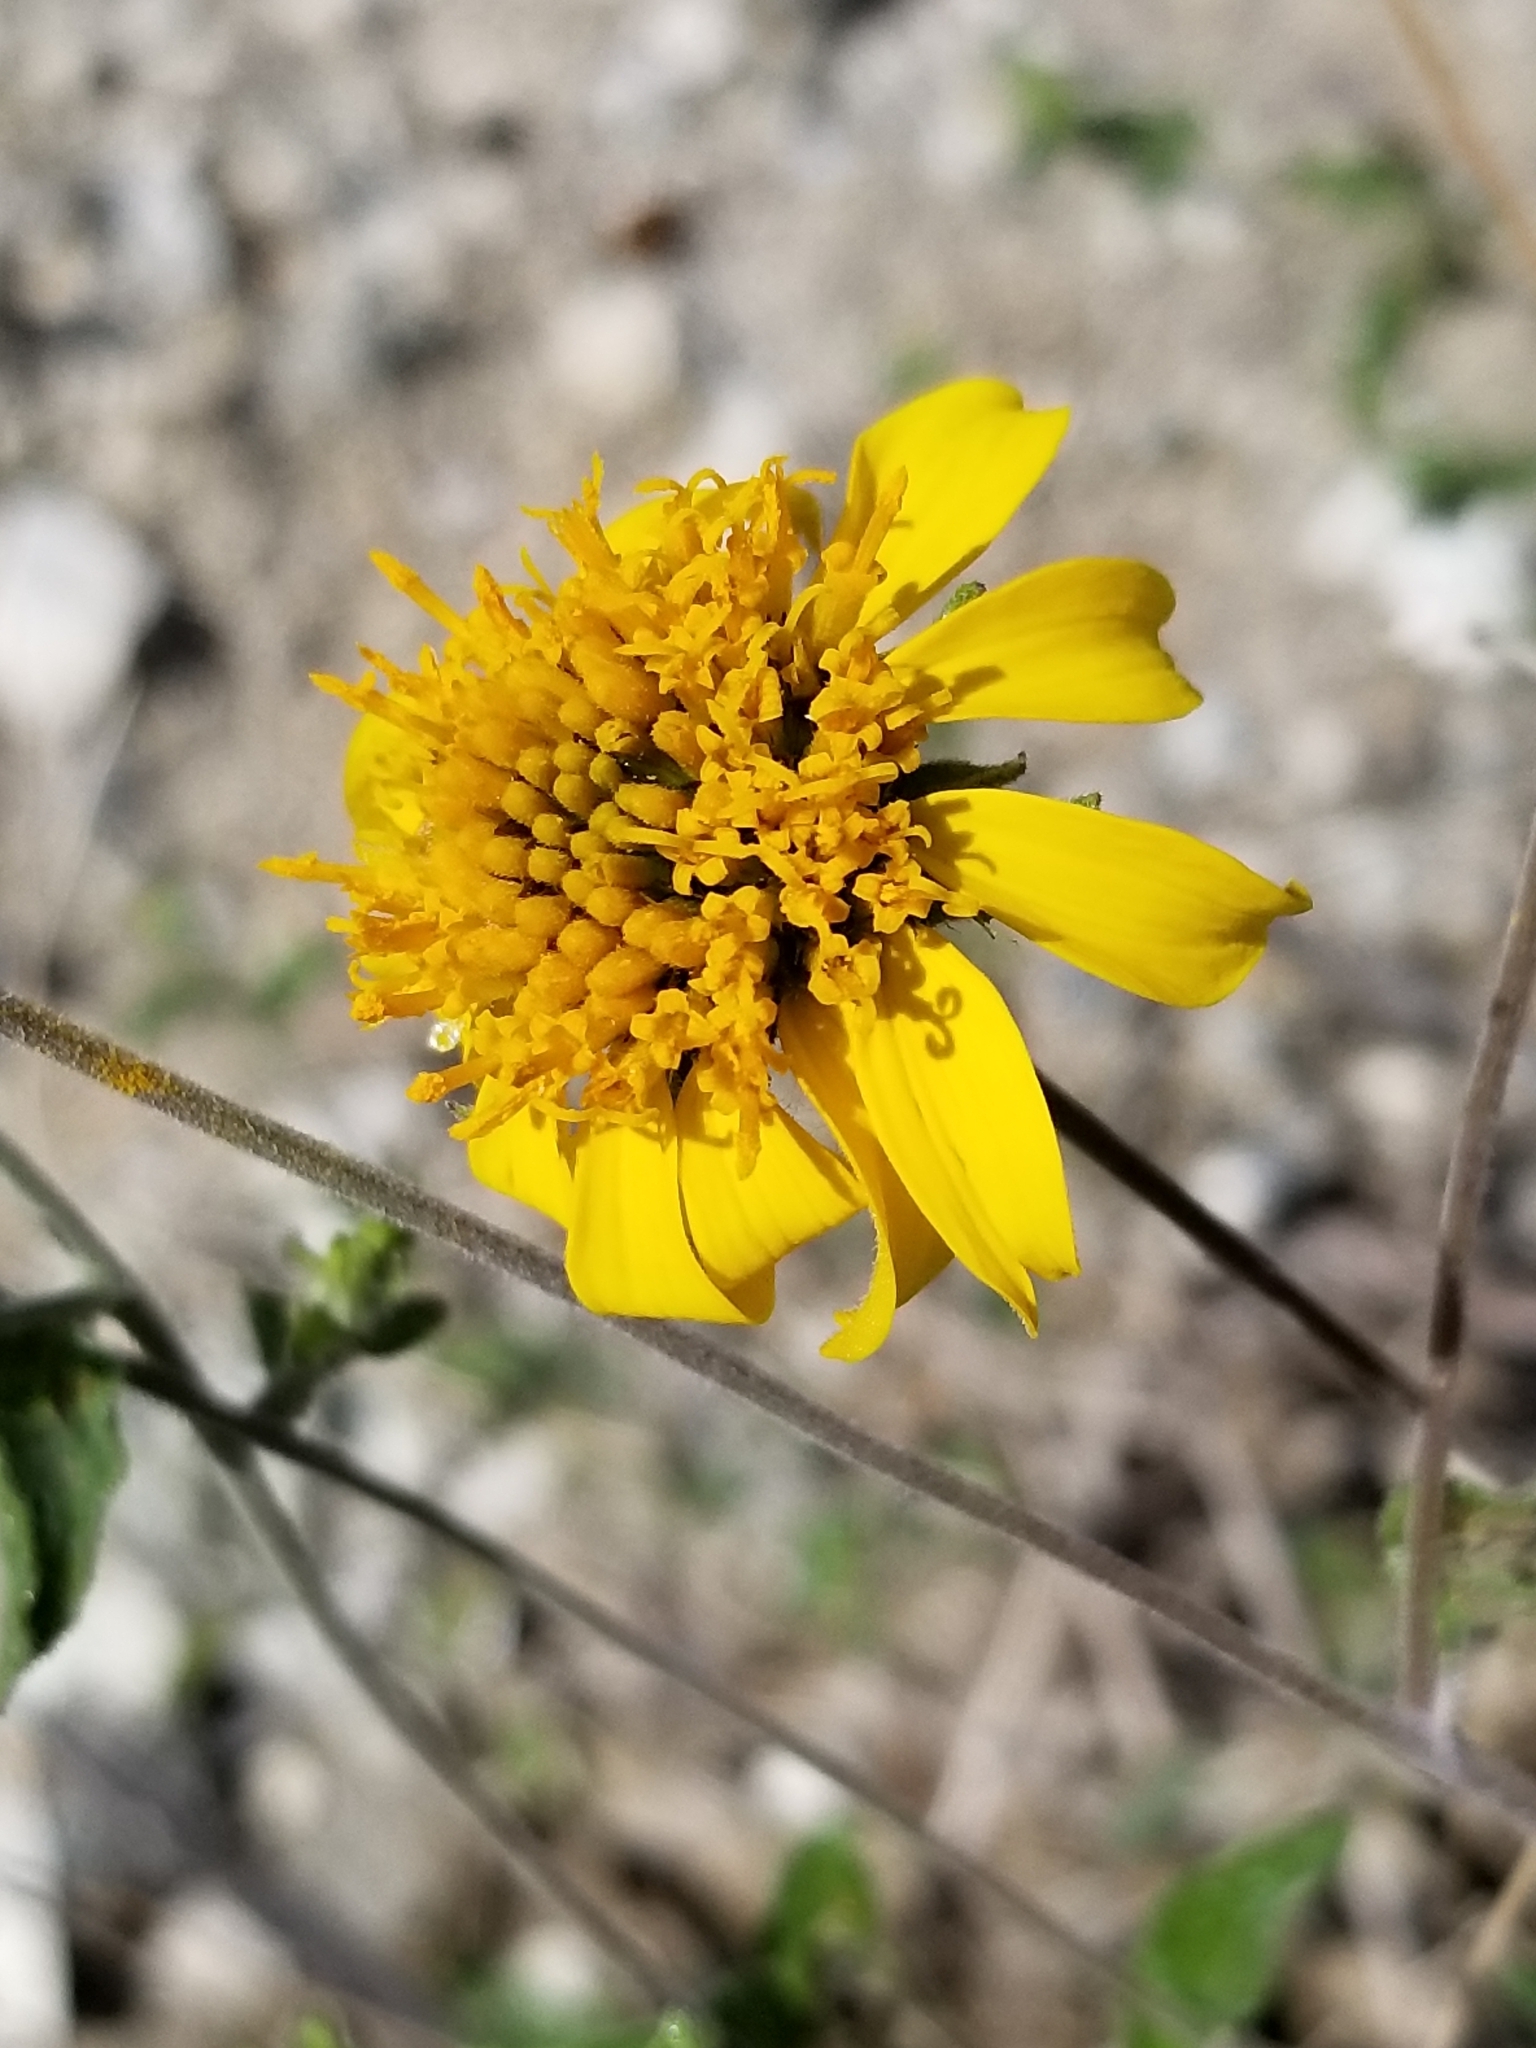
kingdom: Plantae
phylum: Tracheophyta
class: Magnoliopsida
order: Asterales
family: Asteraceae
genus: Bahiopsis
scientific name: Bahiopsis parishii
